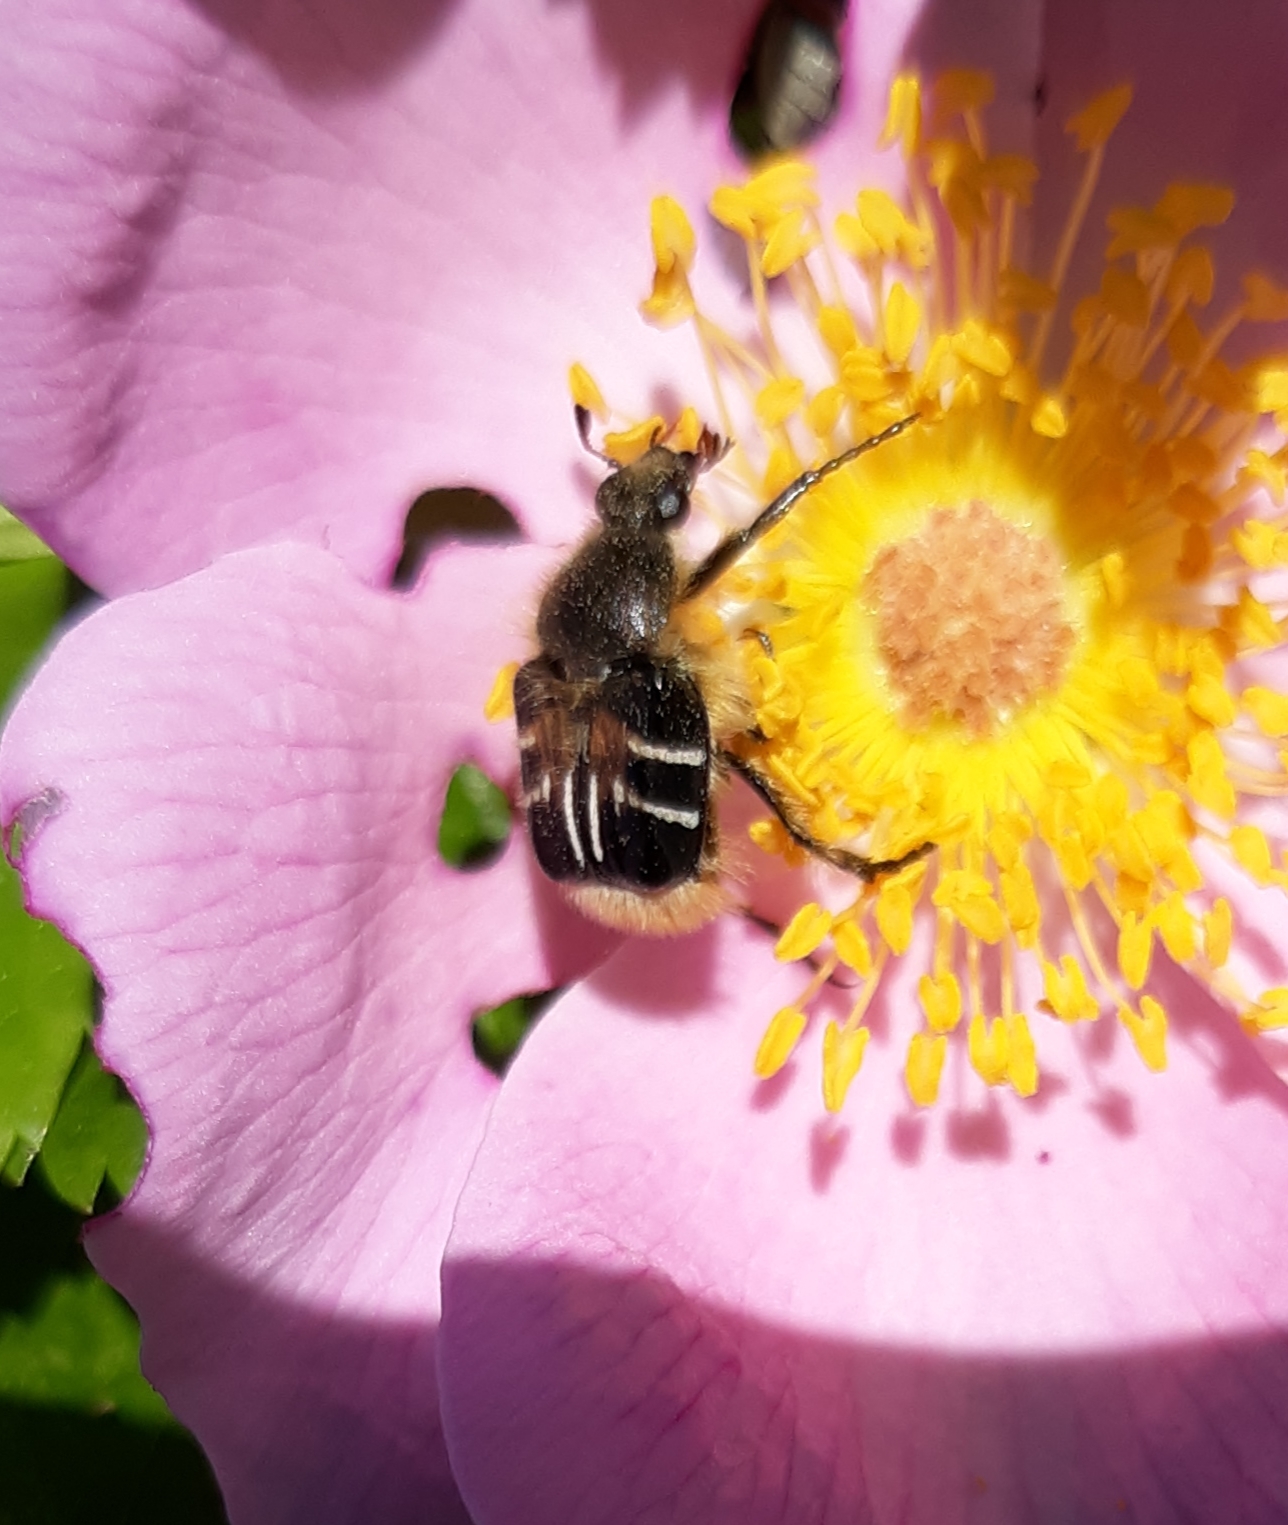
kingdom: Animalia
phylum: Arthropoda
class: Insecta
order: Coleoptera
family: Scarabaeidae
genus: Trichiotinus
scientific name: Trichiotinus assimilis
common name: Bee-mimic beetle
